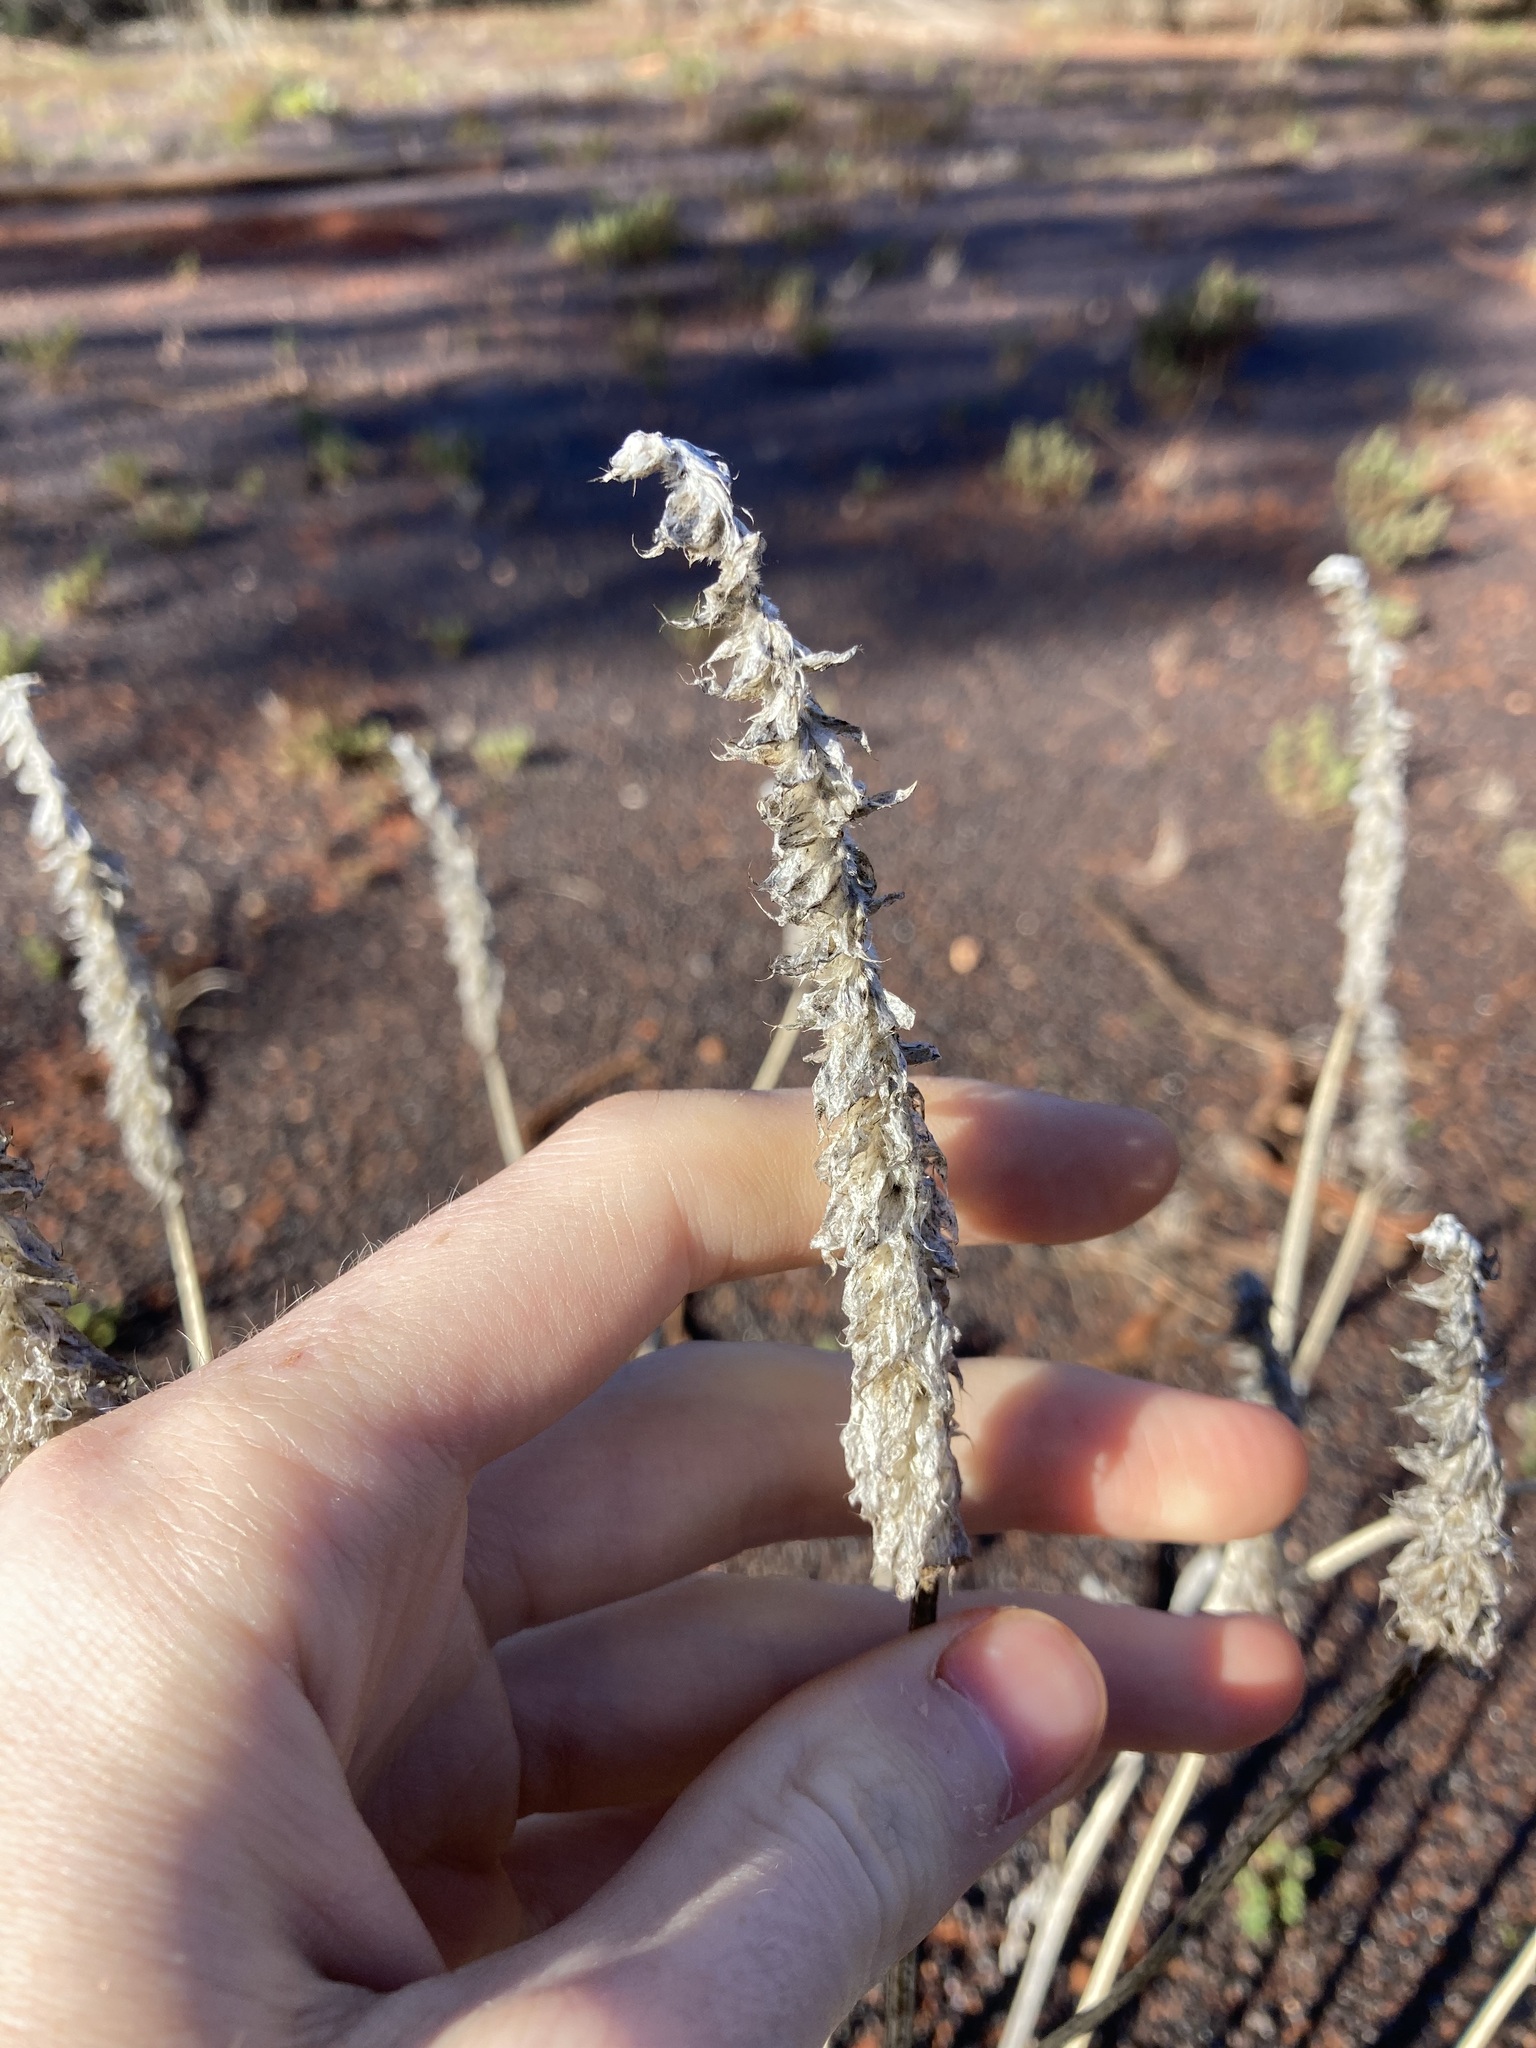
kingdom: Plantae
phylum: Tracheophyta
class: Magnoliopsida
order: Caryophyllales
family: Amaranthaceae
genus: Ptilotus
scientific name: Ptilotus exaltatus
